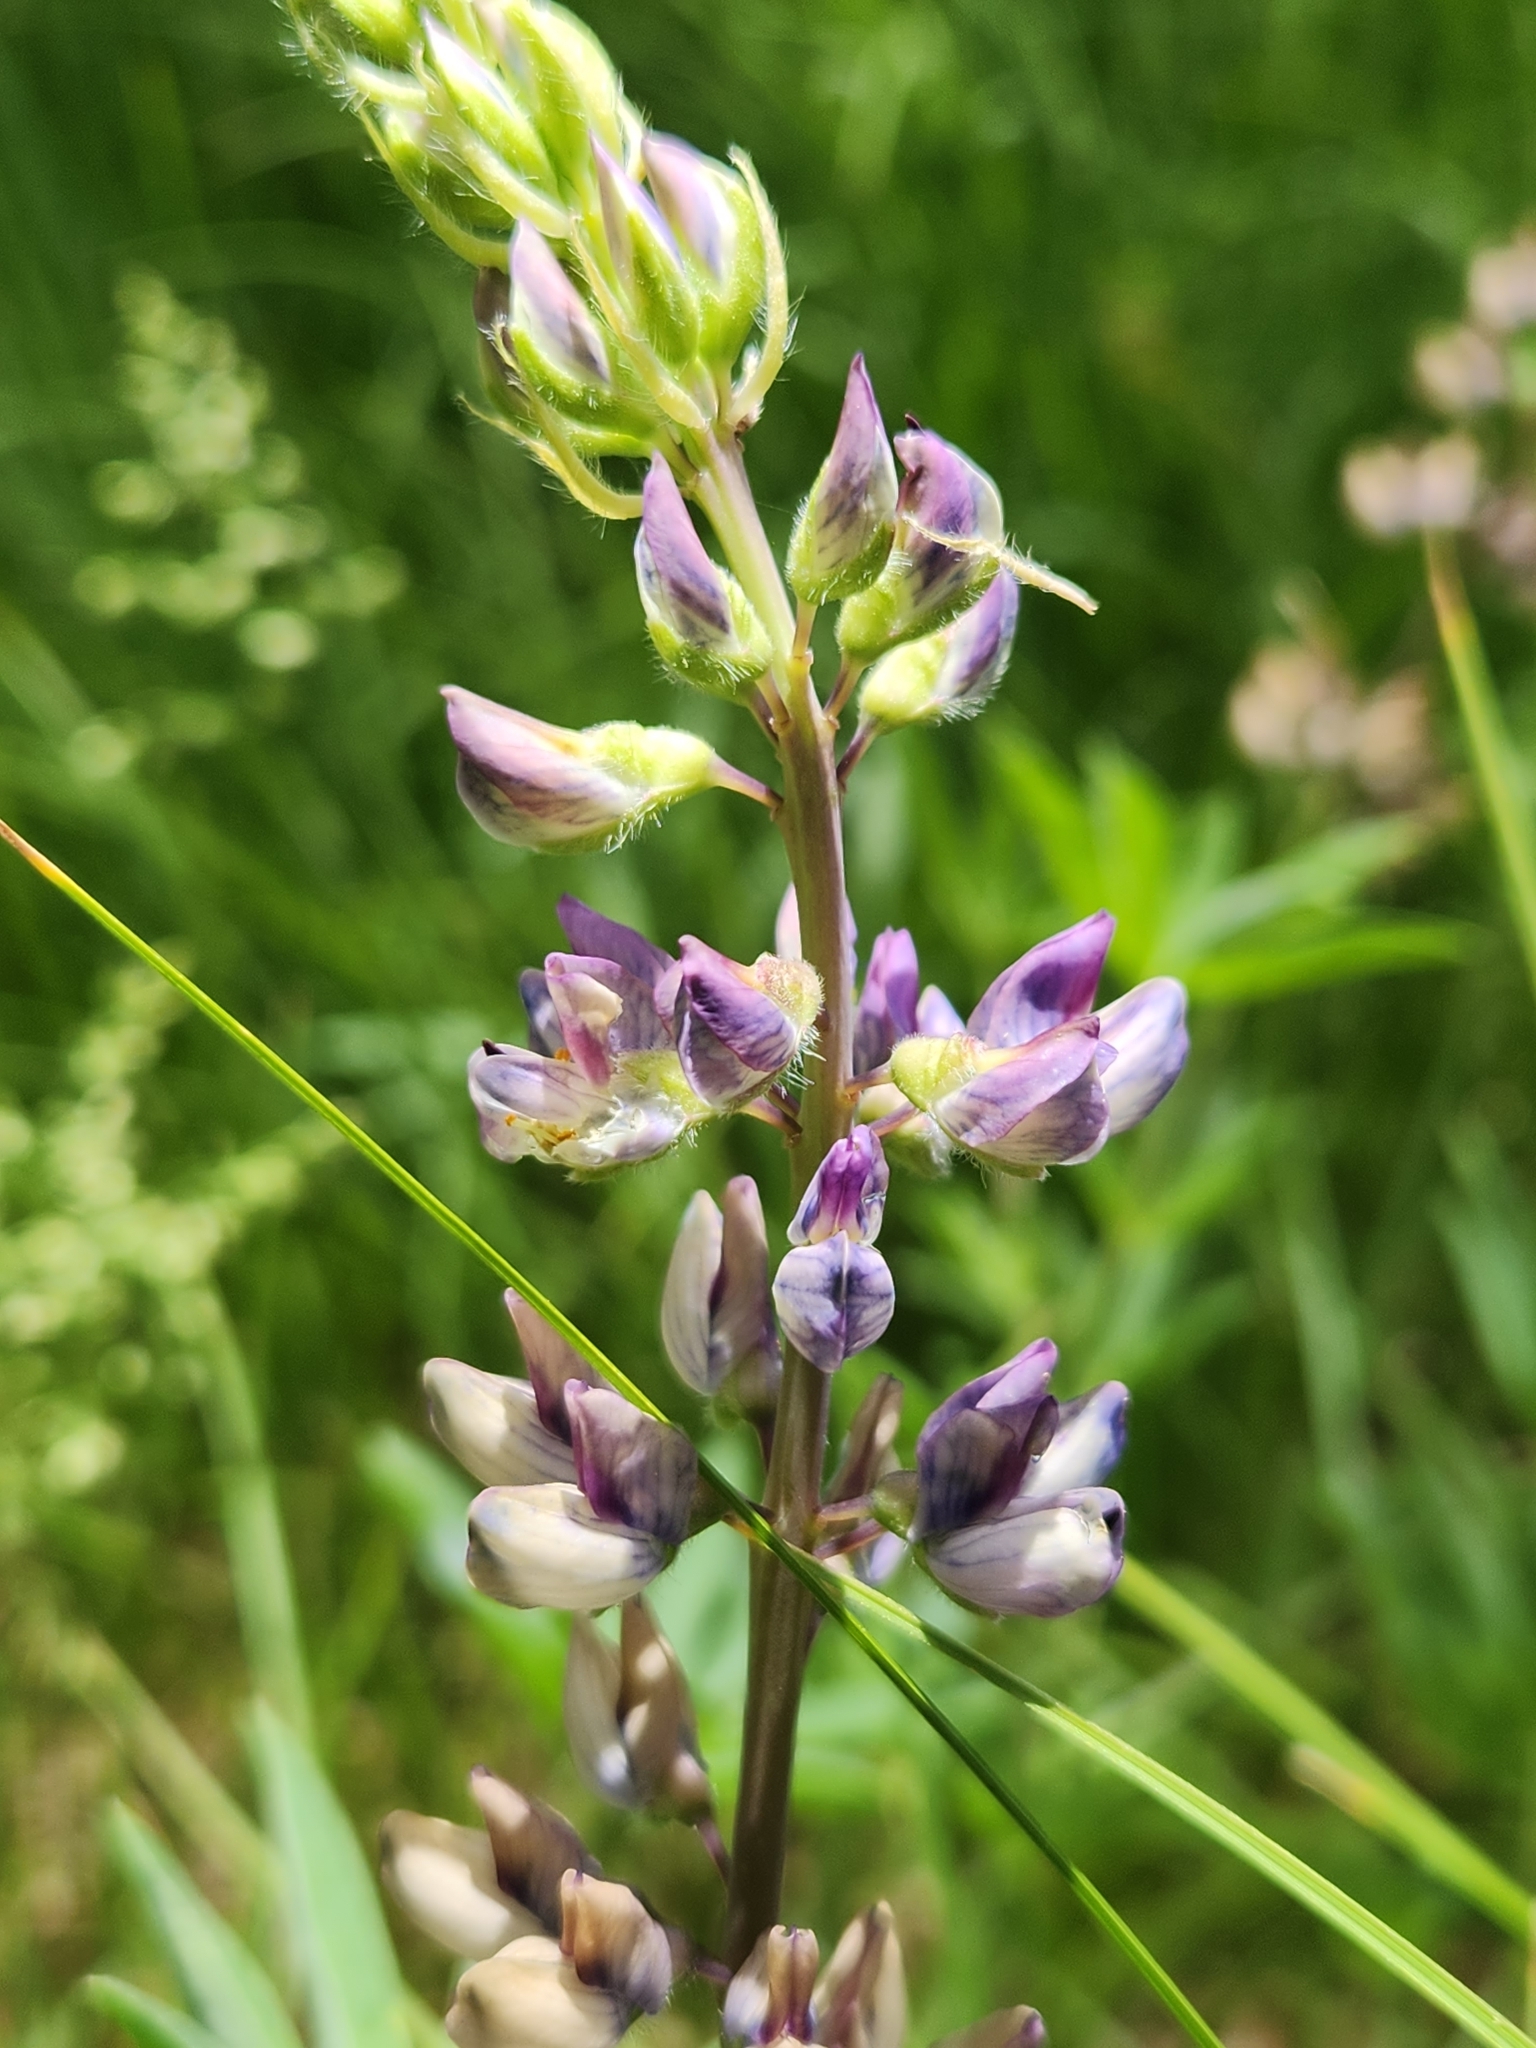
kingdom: Plantae
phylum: Tracheophyta
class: Magnoliopsida
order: Fabales
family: Fabaceae
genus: Lupinus
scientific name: Lupinus burkei
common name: Largeleaf lupine
